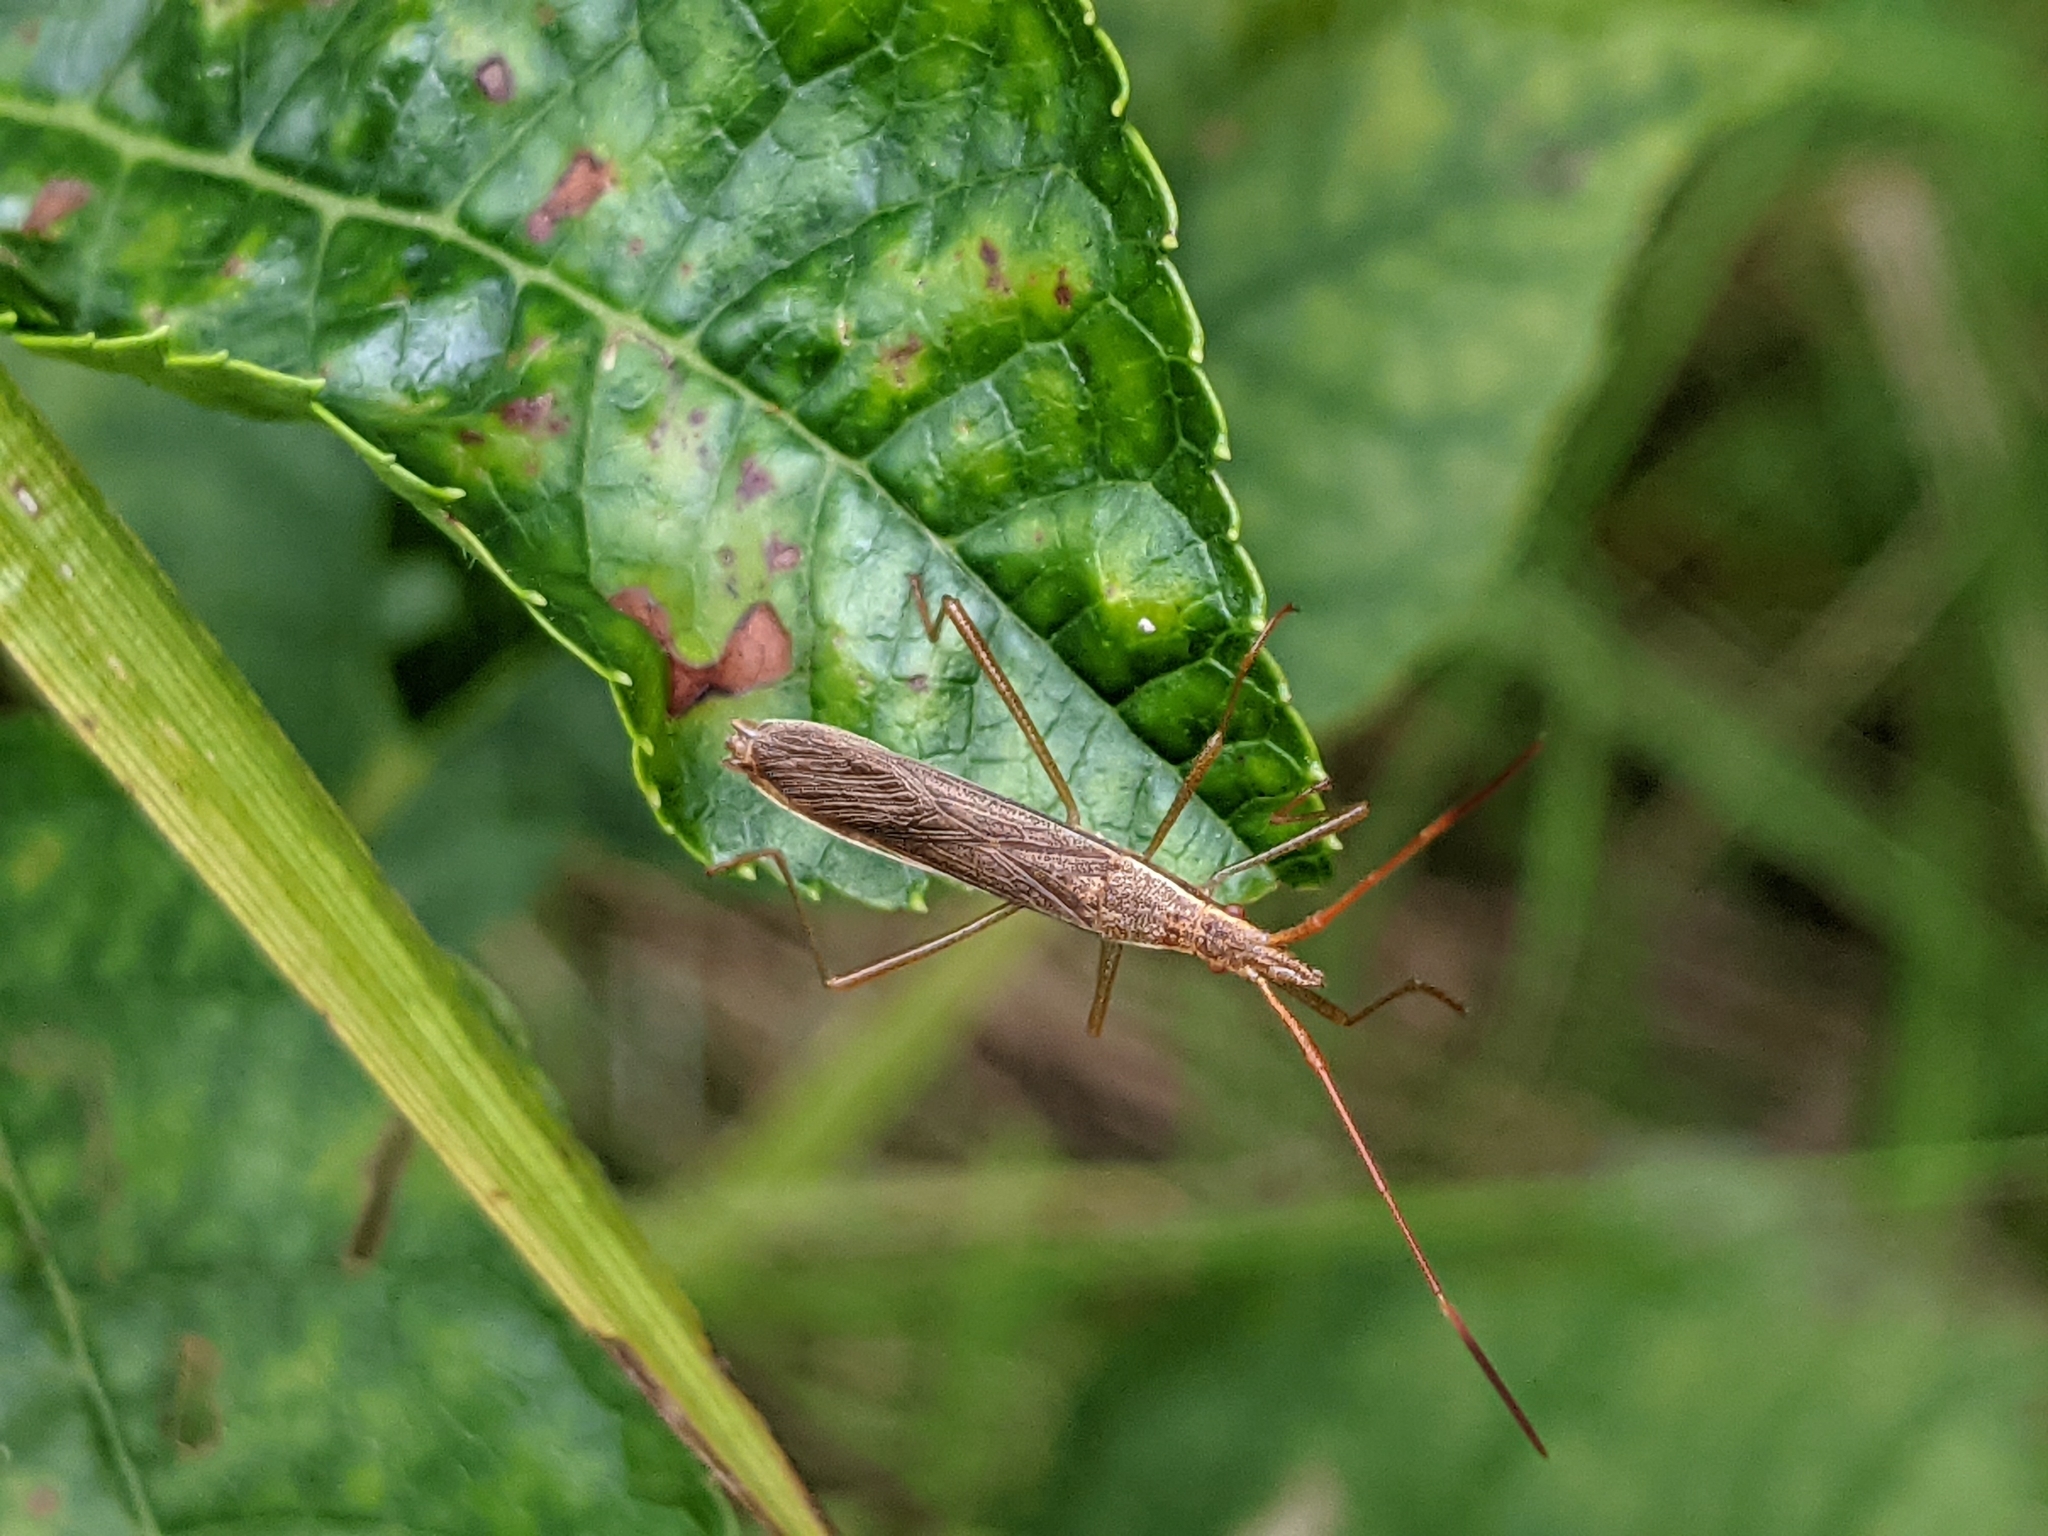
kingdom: Animalia
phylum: Arthropoda
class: Insecta
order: Hemiptera
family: Alydidae
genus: Protenor
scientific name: Protenor belfragei
